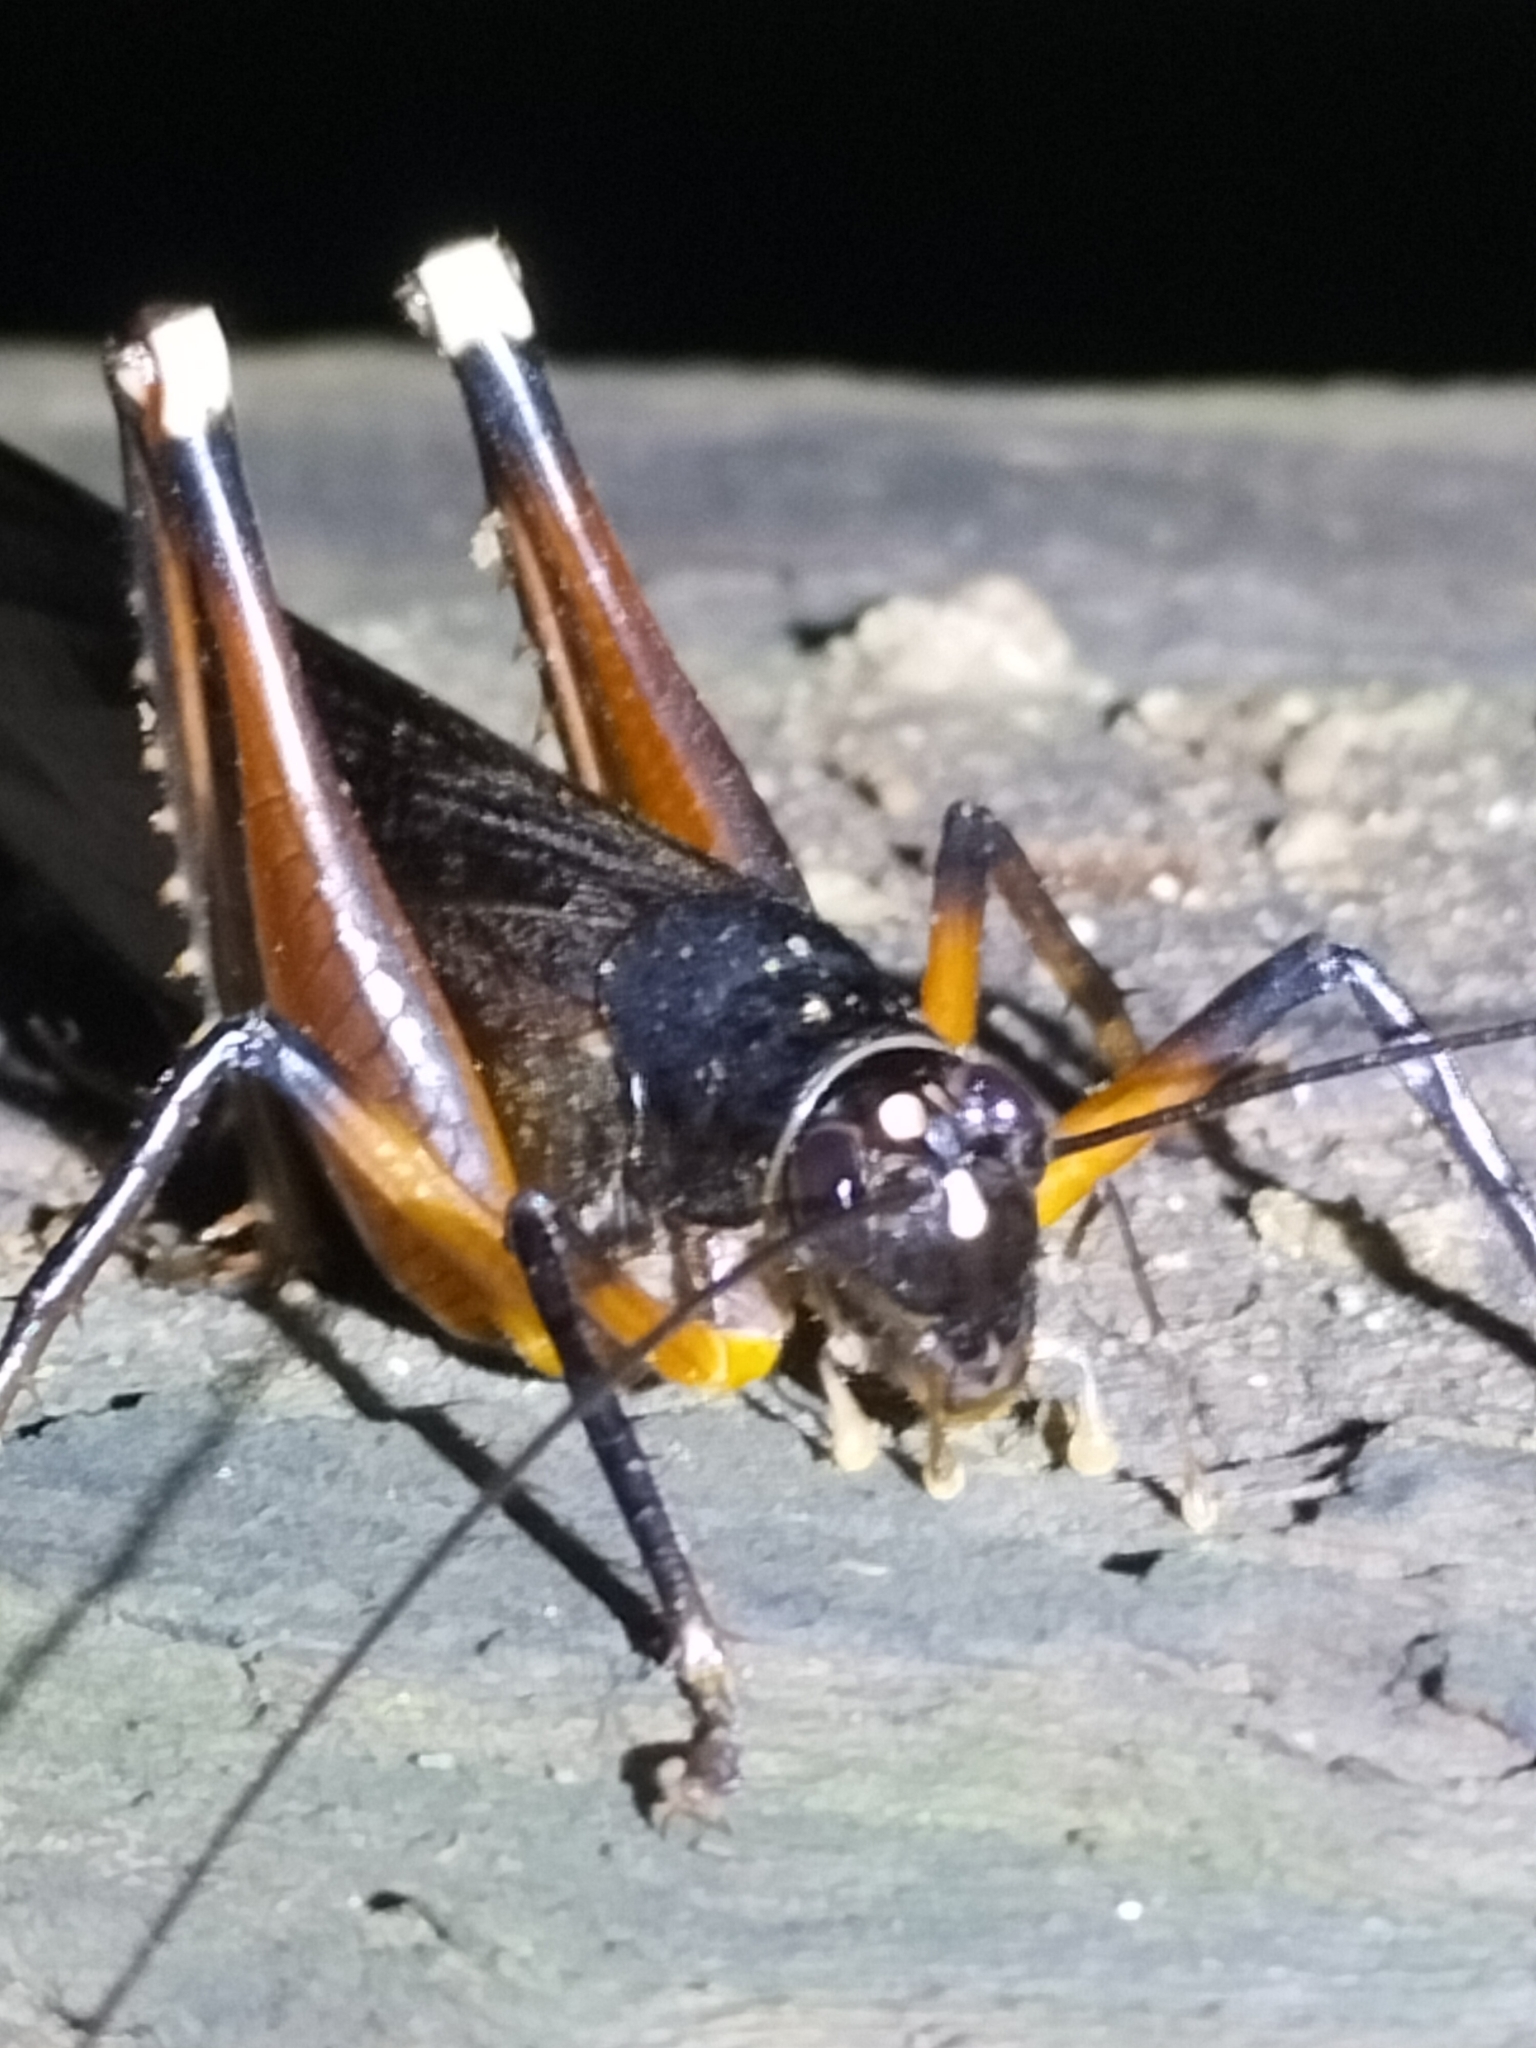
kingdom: Animalia
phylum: Arthropoda
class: Insecta
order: Orthoptera
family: Anostostomatidae
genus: Exogryllacris
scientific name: Exogryllacris ornata
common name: Broad-winged forest cricket
